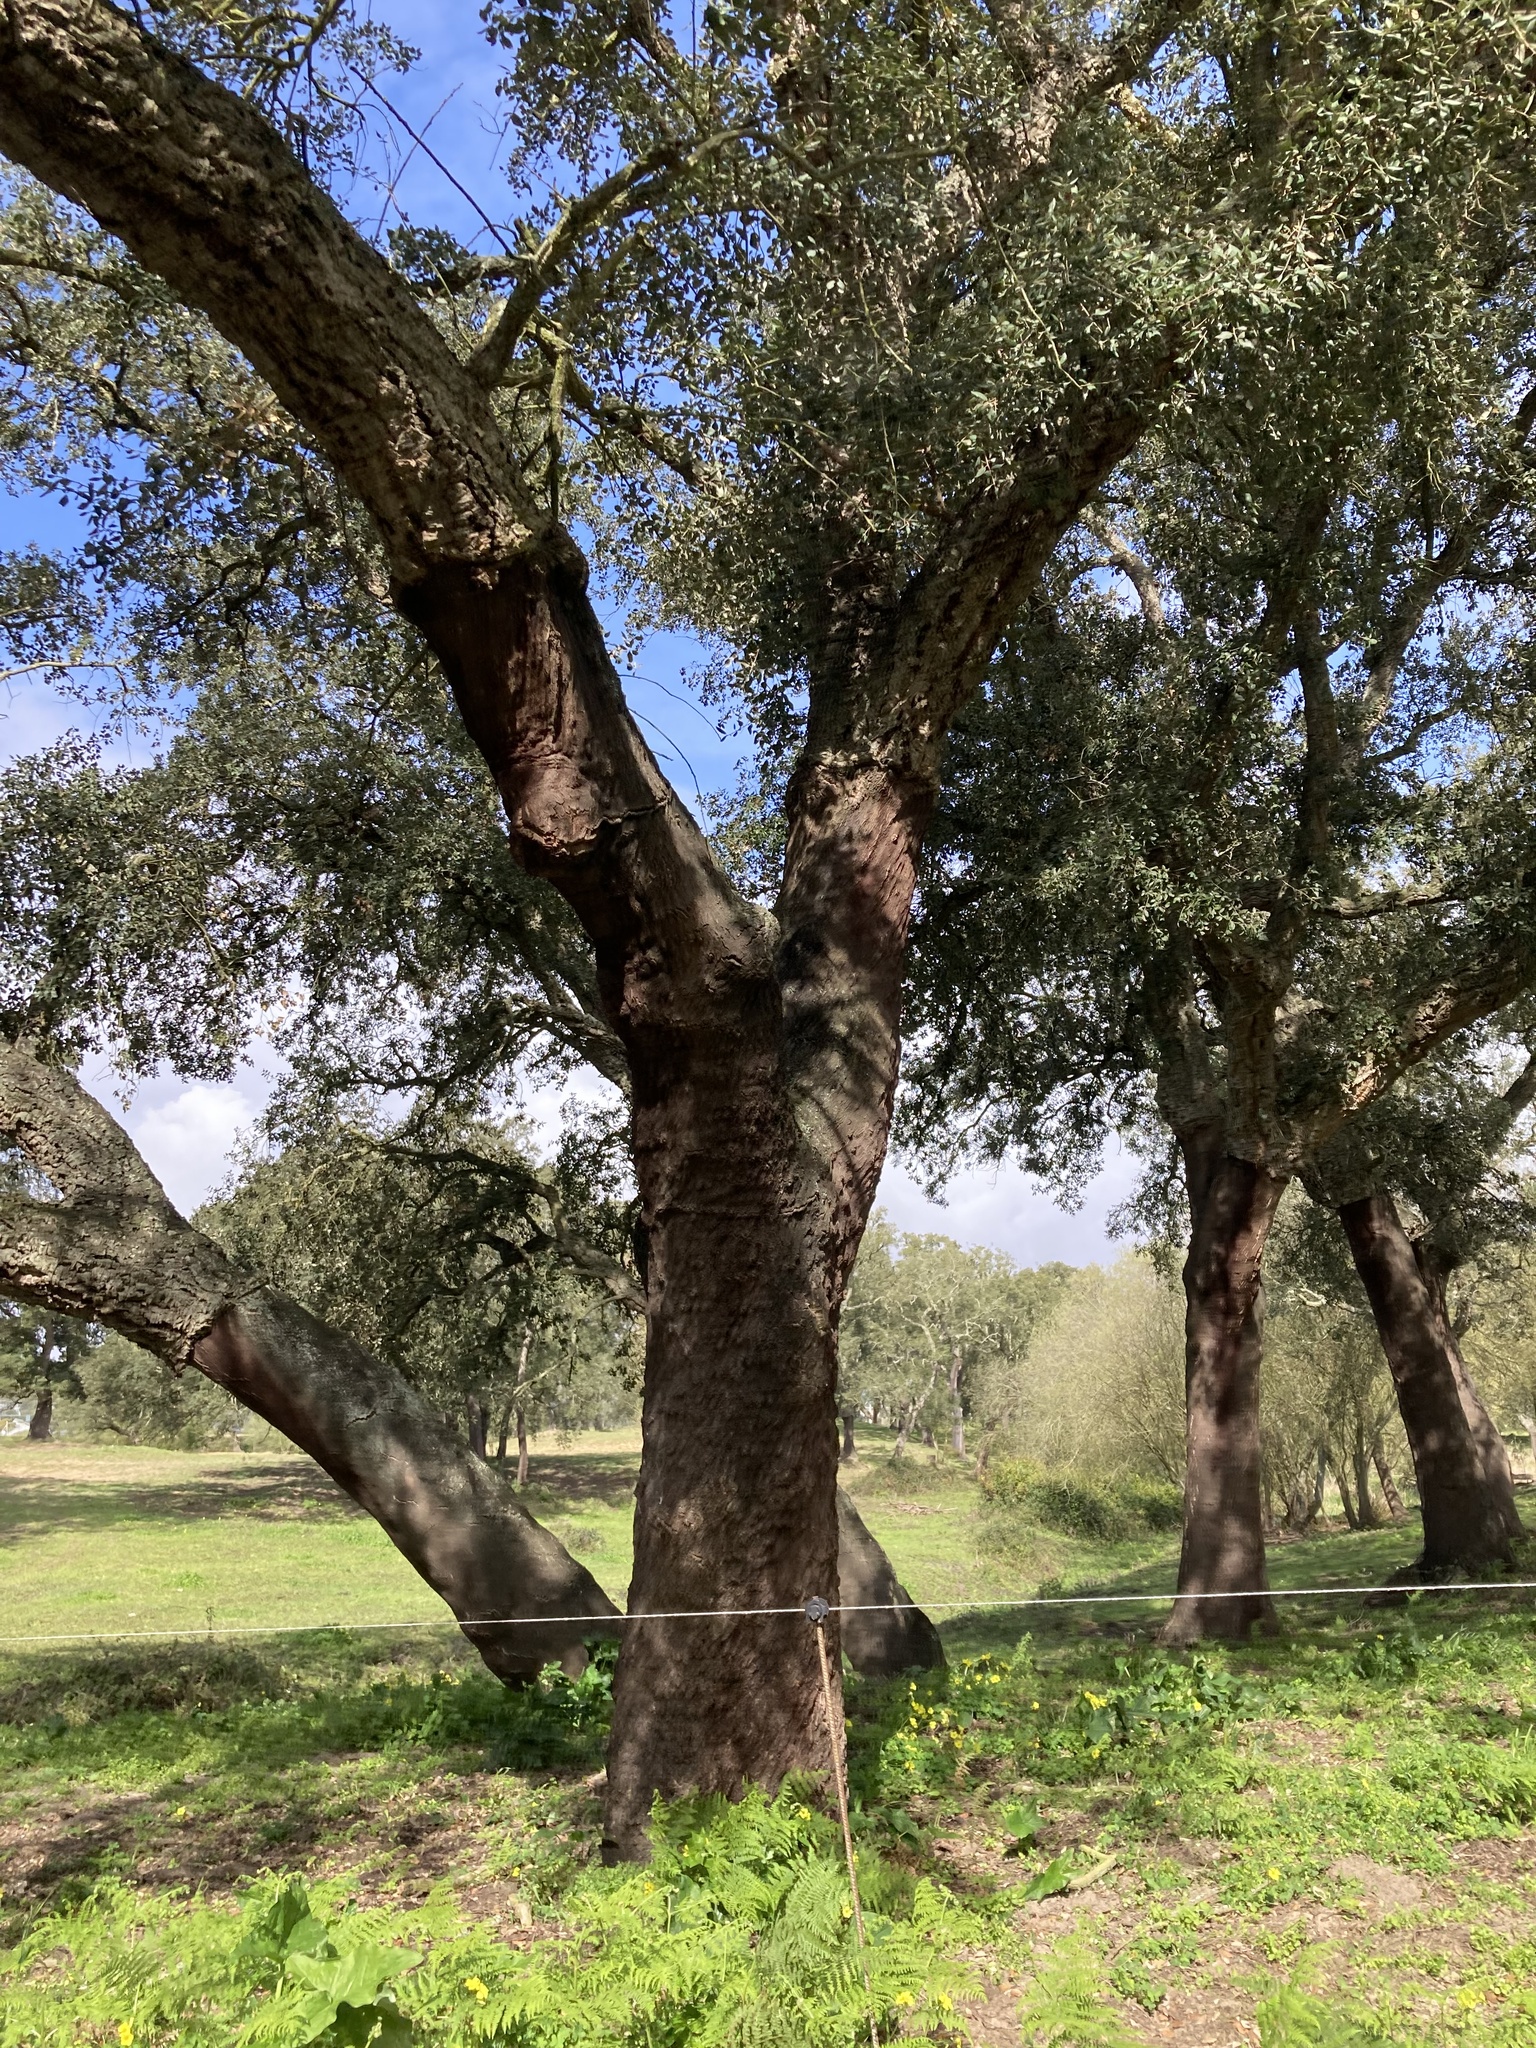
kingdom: Plantae
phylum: Tracheophyta
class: Magnoliopsida
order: Fagales
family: Fagaceae
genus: Quercus
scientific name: Quercus suber
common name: Cork oak
